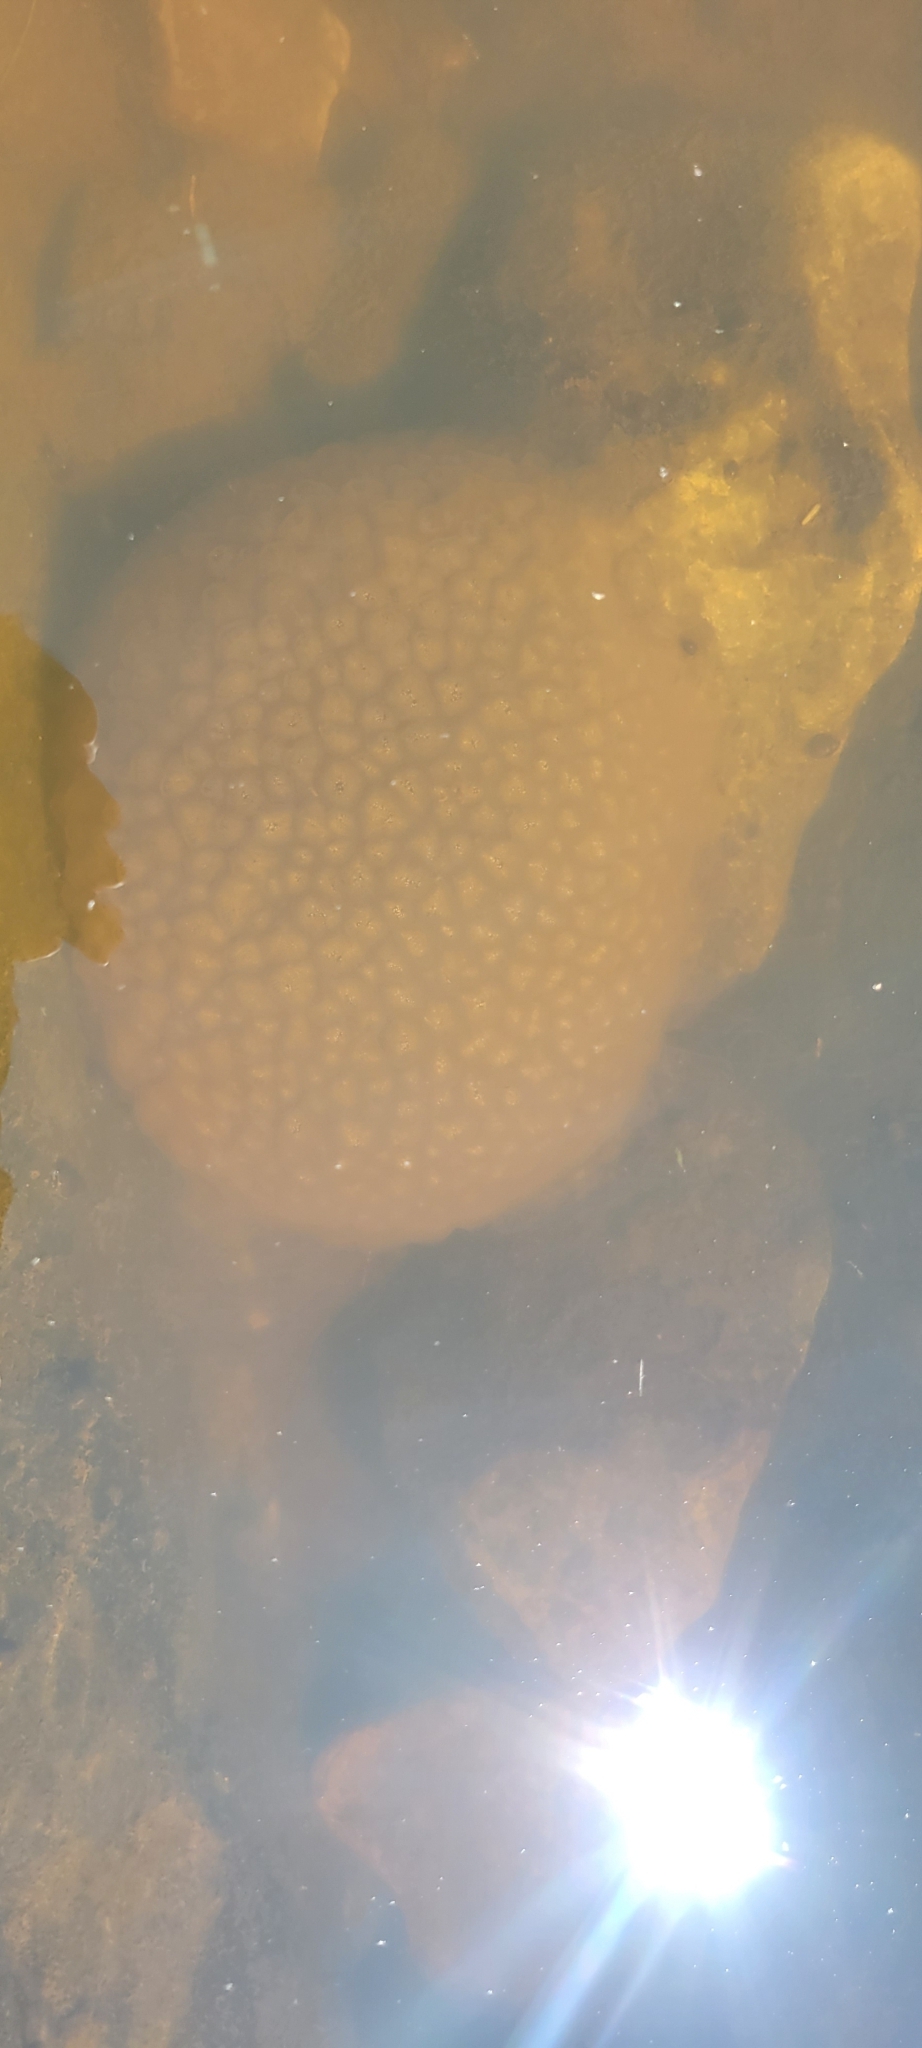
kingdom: Animalia
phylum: Bryozoa
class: Phylactolaemata
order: Plumatellida
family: Pectinatellidae
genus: Pectinatella
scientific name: Pectinatella magnifica
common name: Magnificent bryozoan
